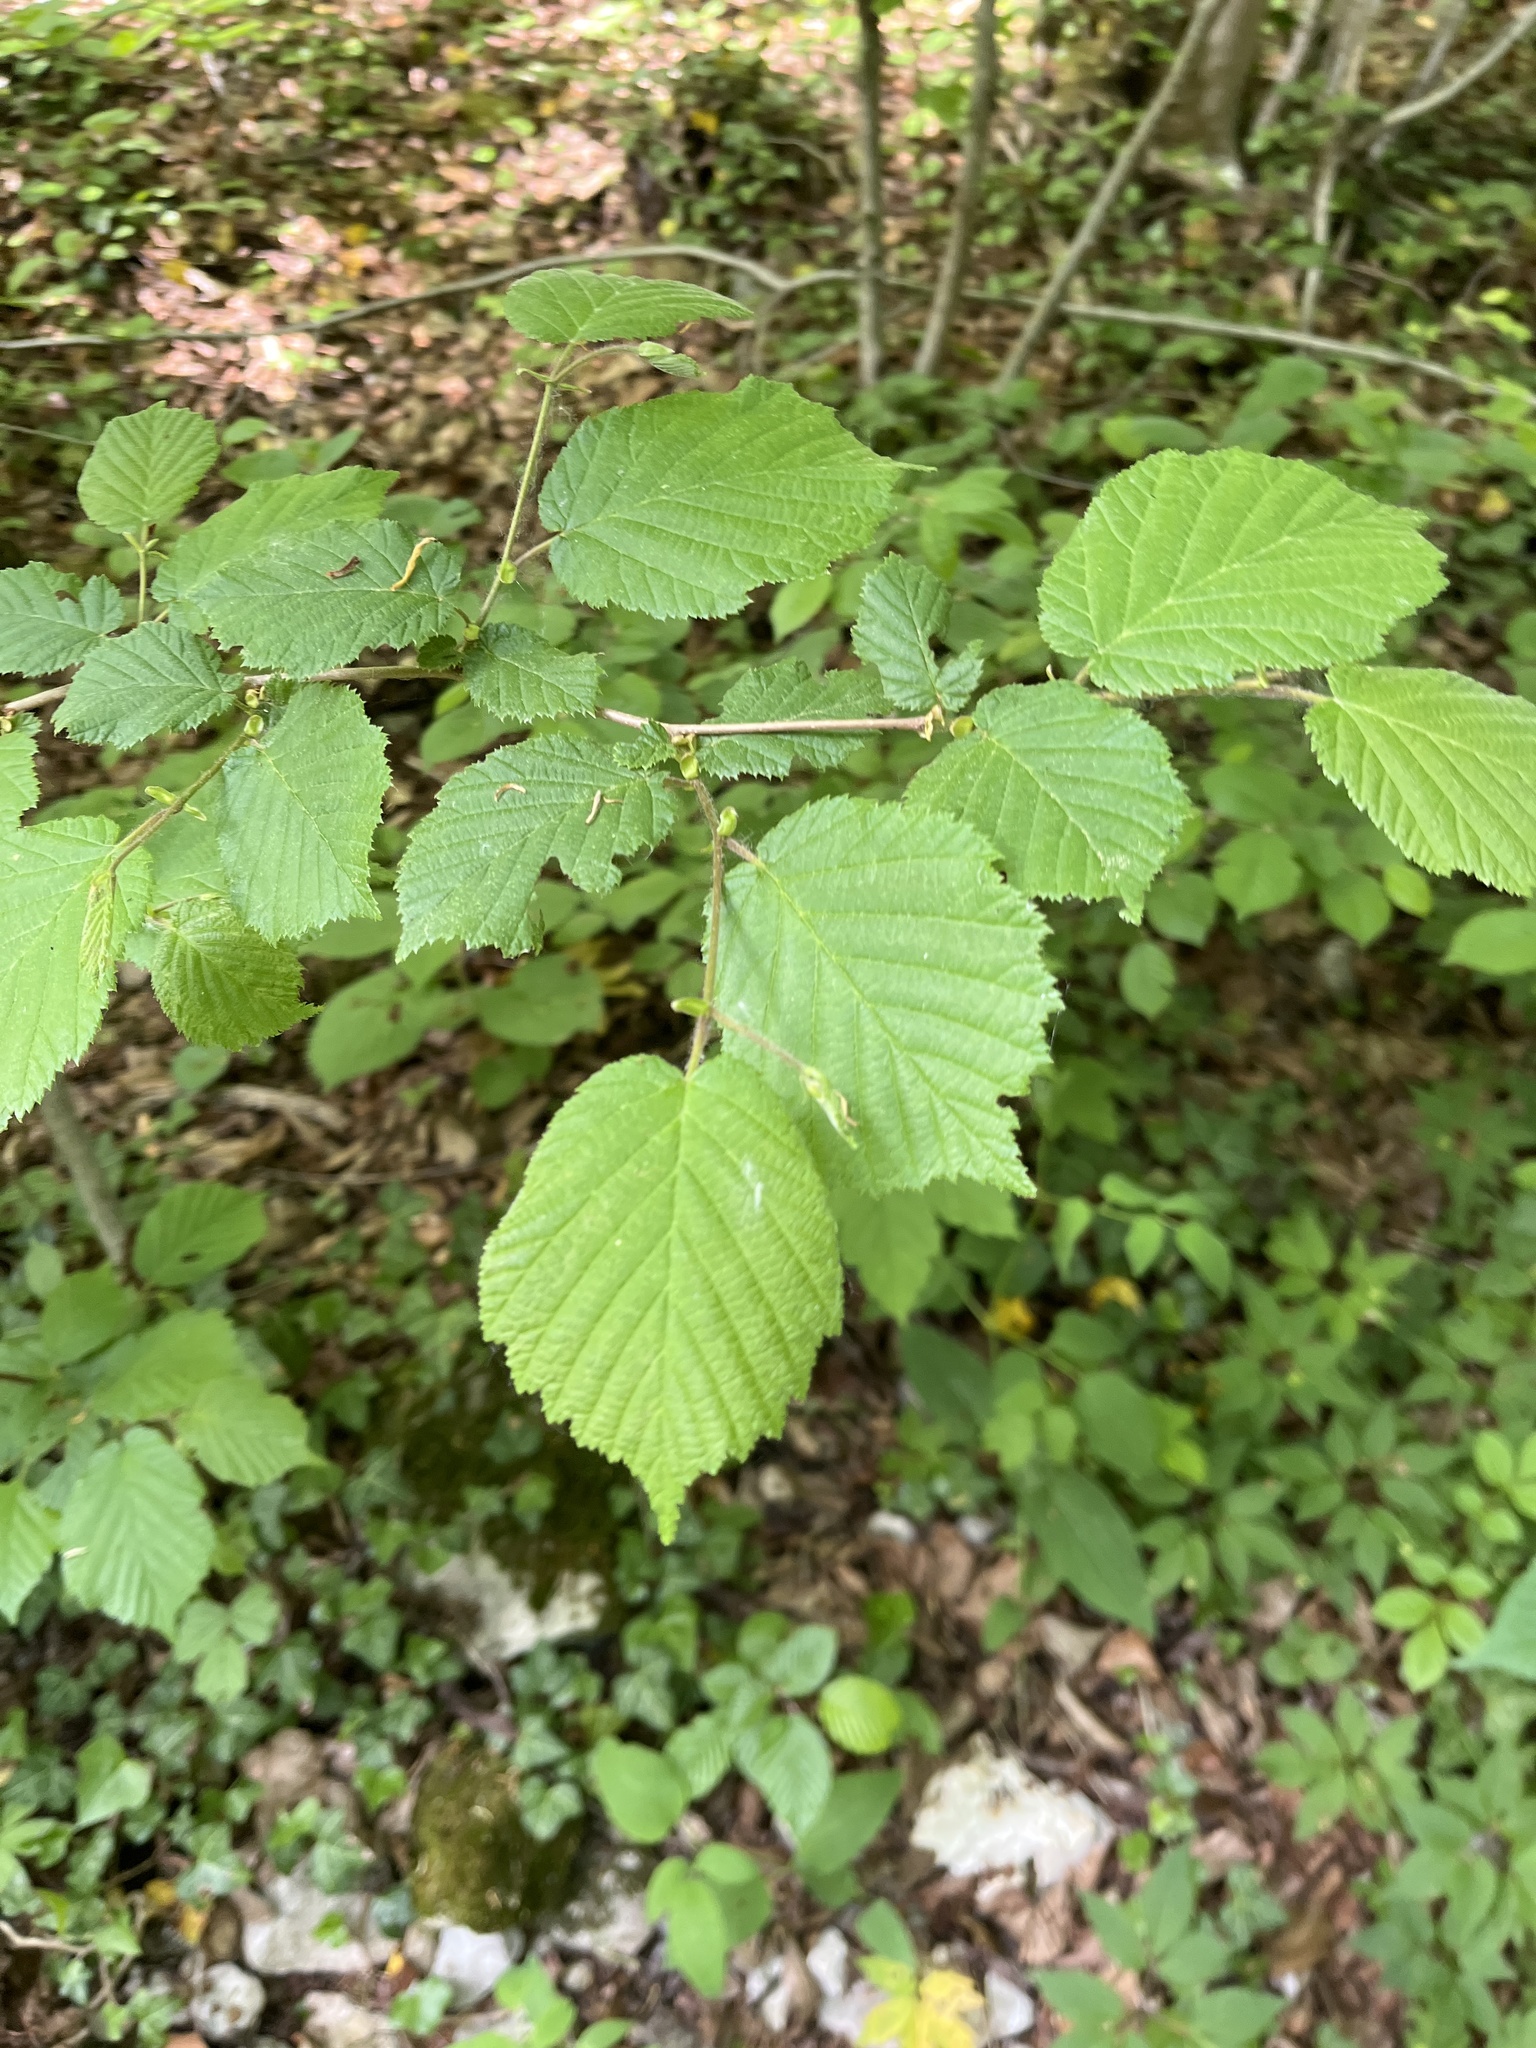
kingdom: Plantae
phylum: Tracheophyta
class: Magnoliopsida
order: Fagales
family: Betulaceae
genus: Corylus
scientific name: Corylus avellana
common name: European hazel
